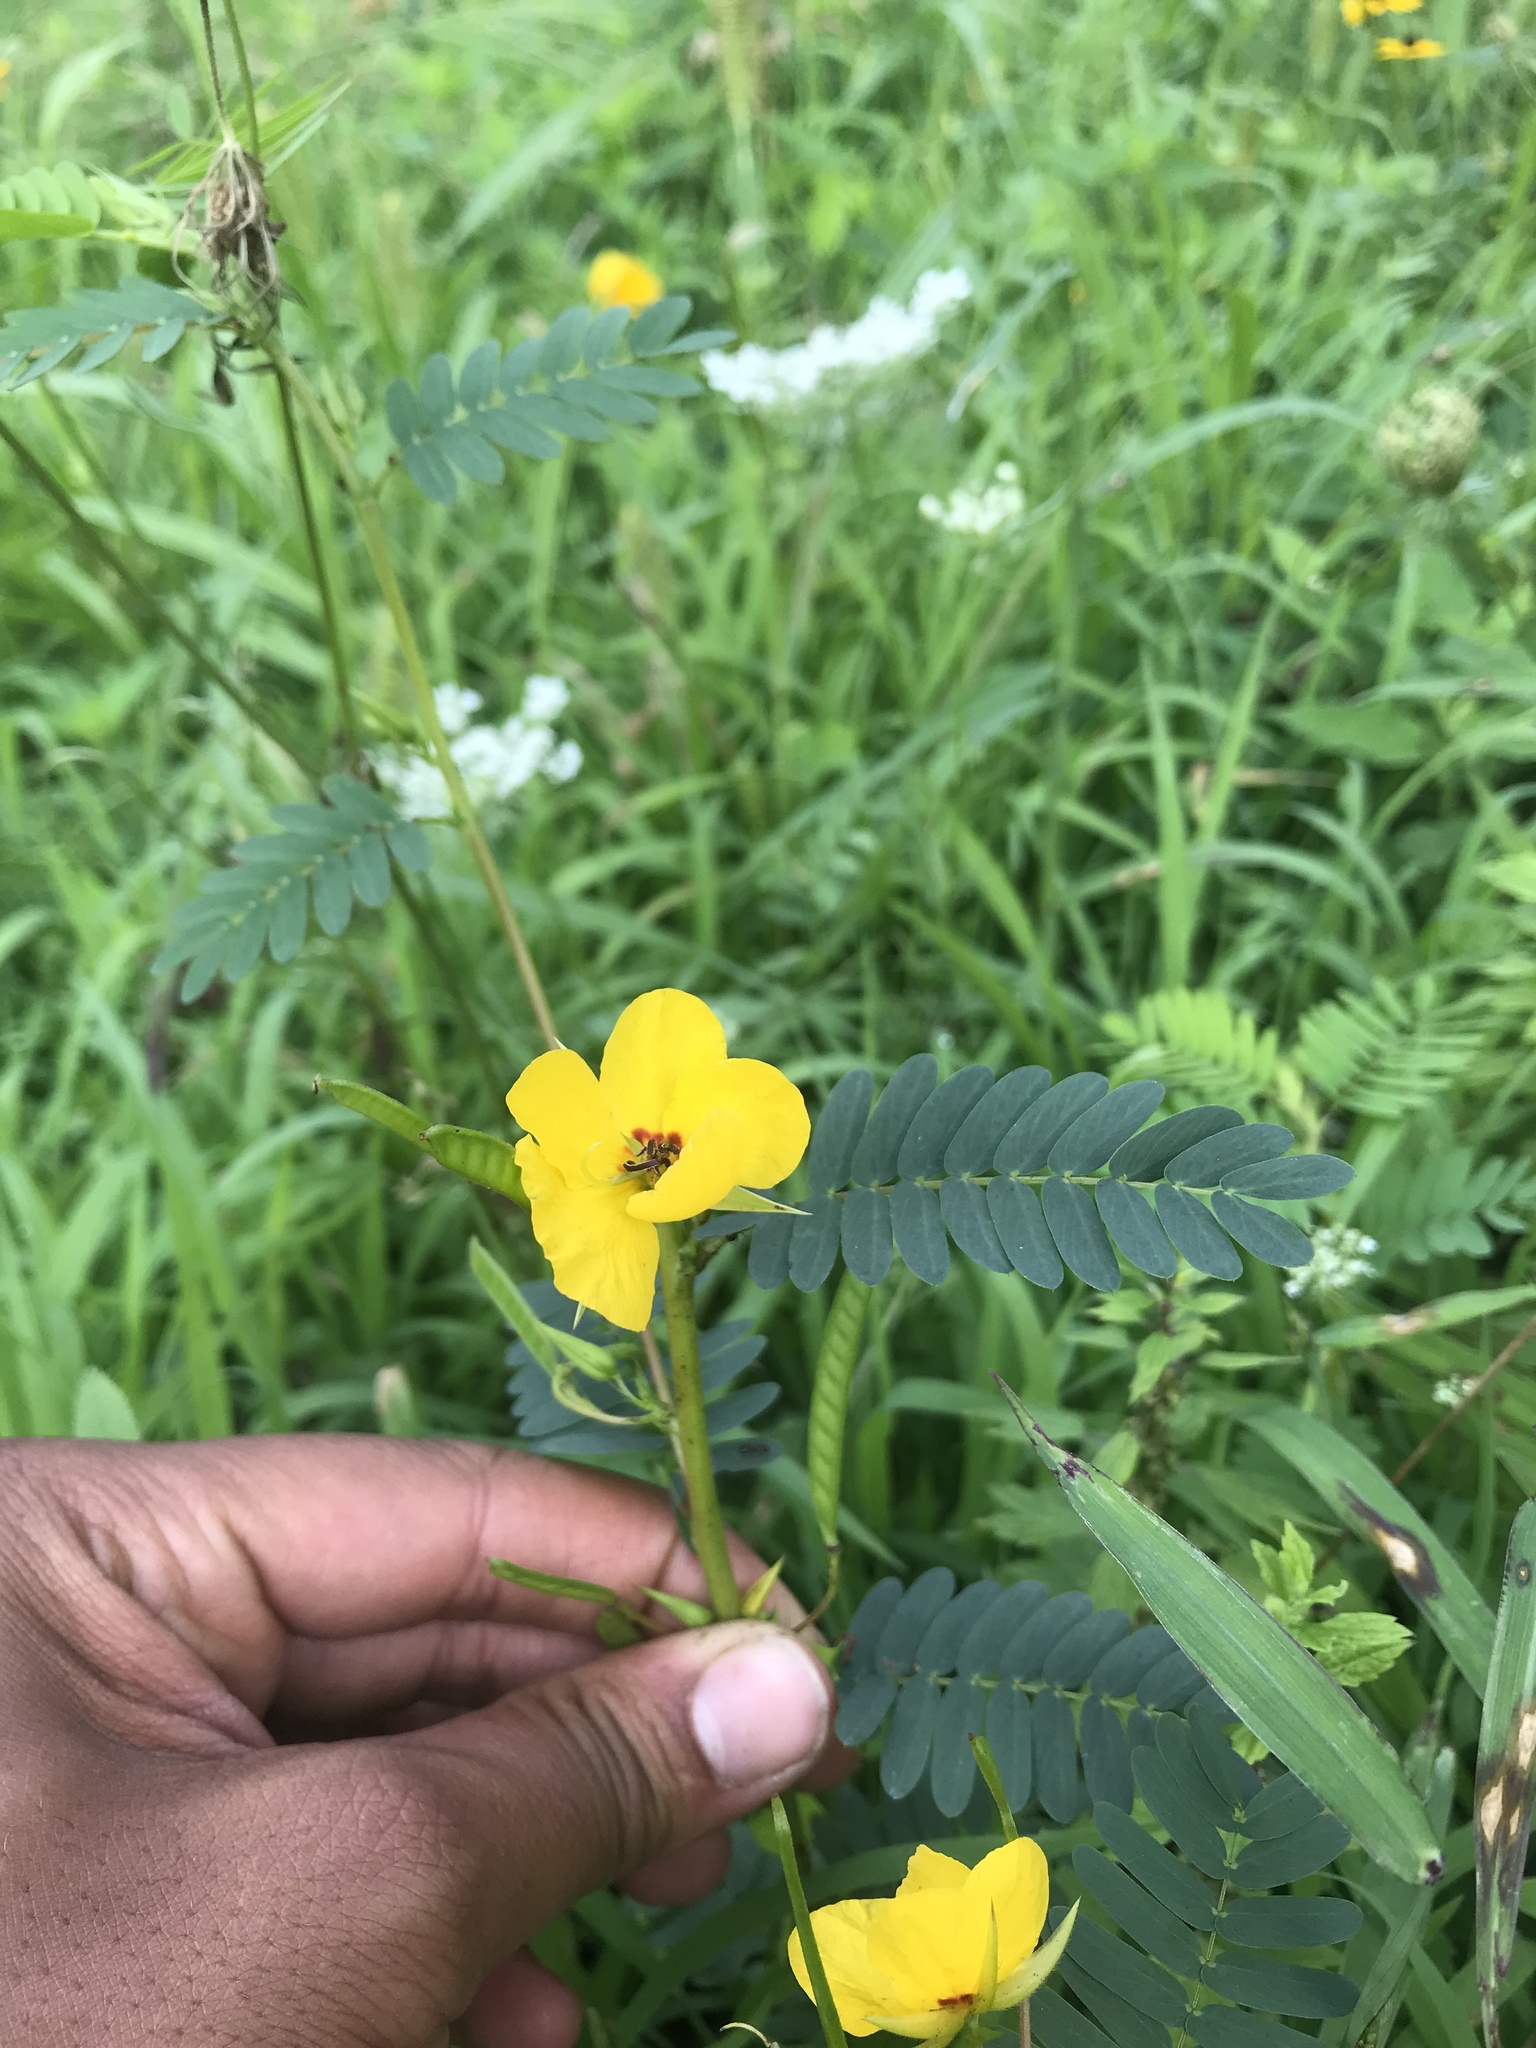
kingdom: Plantae
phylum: Tracheophyta
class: Magnoliopsida
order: Fabales
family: Fabaceae
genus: Chamaecrista
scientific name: Chamaecrista fasciculata
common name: Golden cassia
